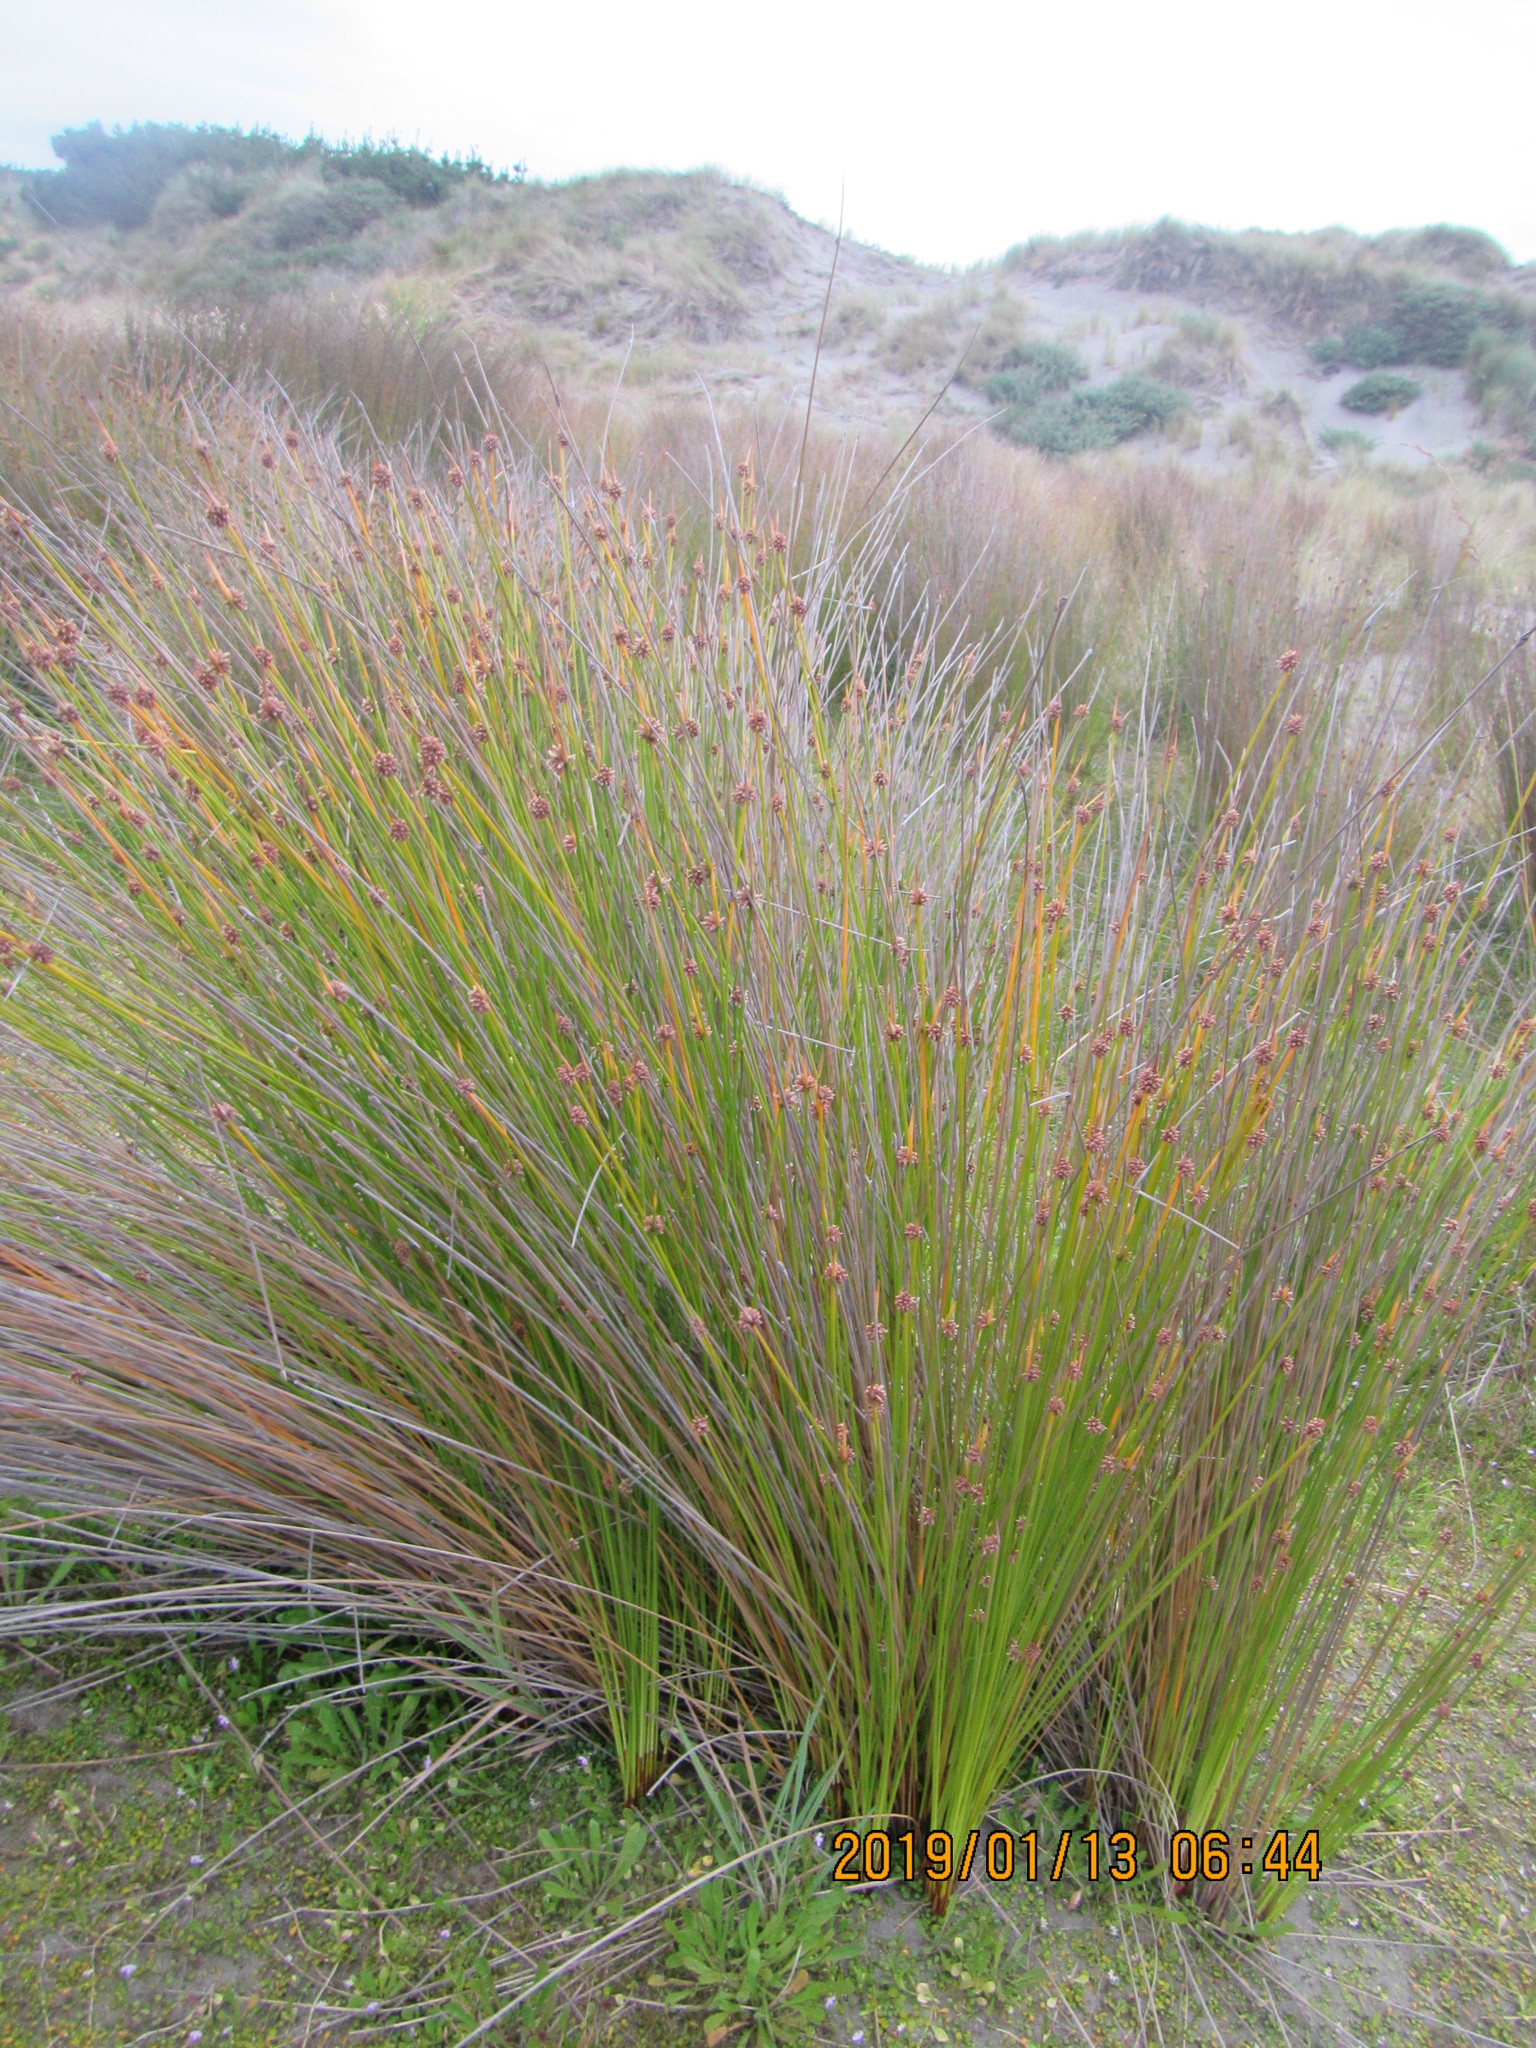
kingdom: Plantae
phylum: Tracheophyta
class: Liliopsida
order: Poales
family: Cyperaceae
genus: Ficinia
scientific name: Ficinia nodosa
